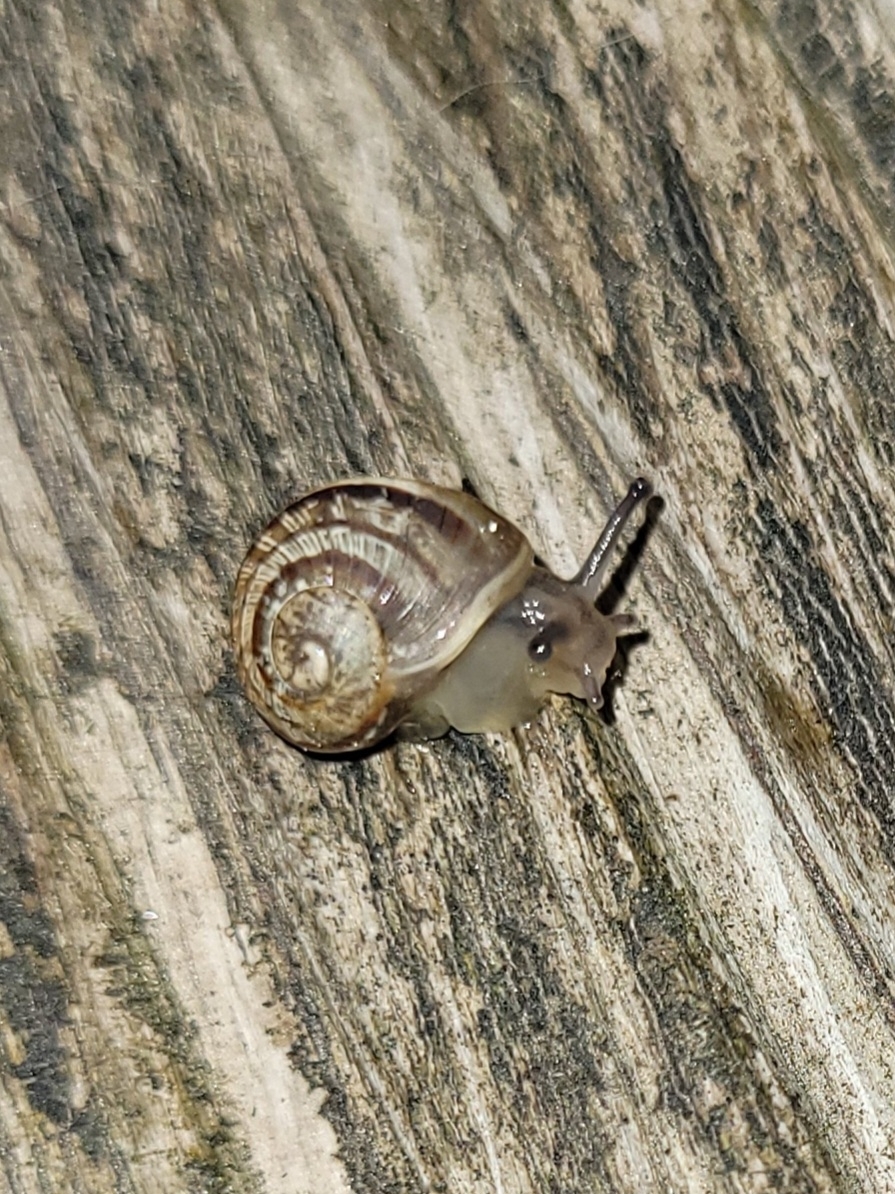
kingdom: Animalia
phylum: Mollusca
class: Gastropoda
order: Stylommatophora
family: Helicidae
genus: Cornu
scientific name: Cornu aspersum
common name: Brown garden snail
